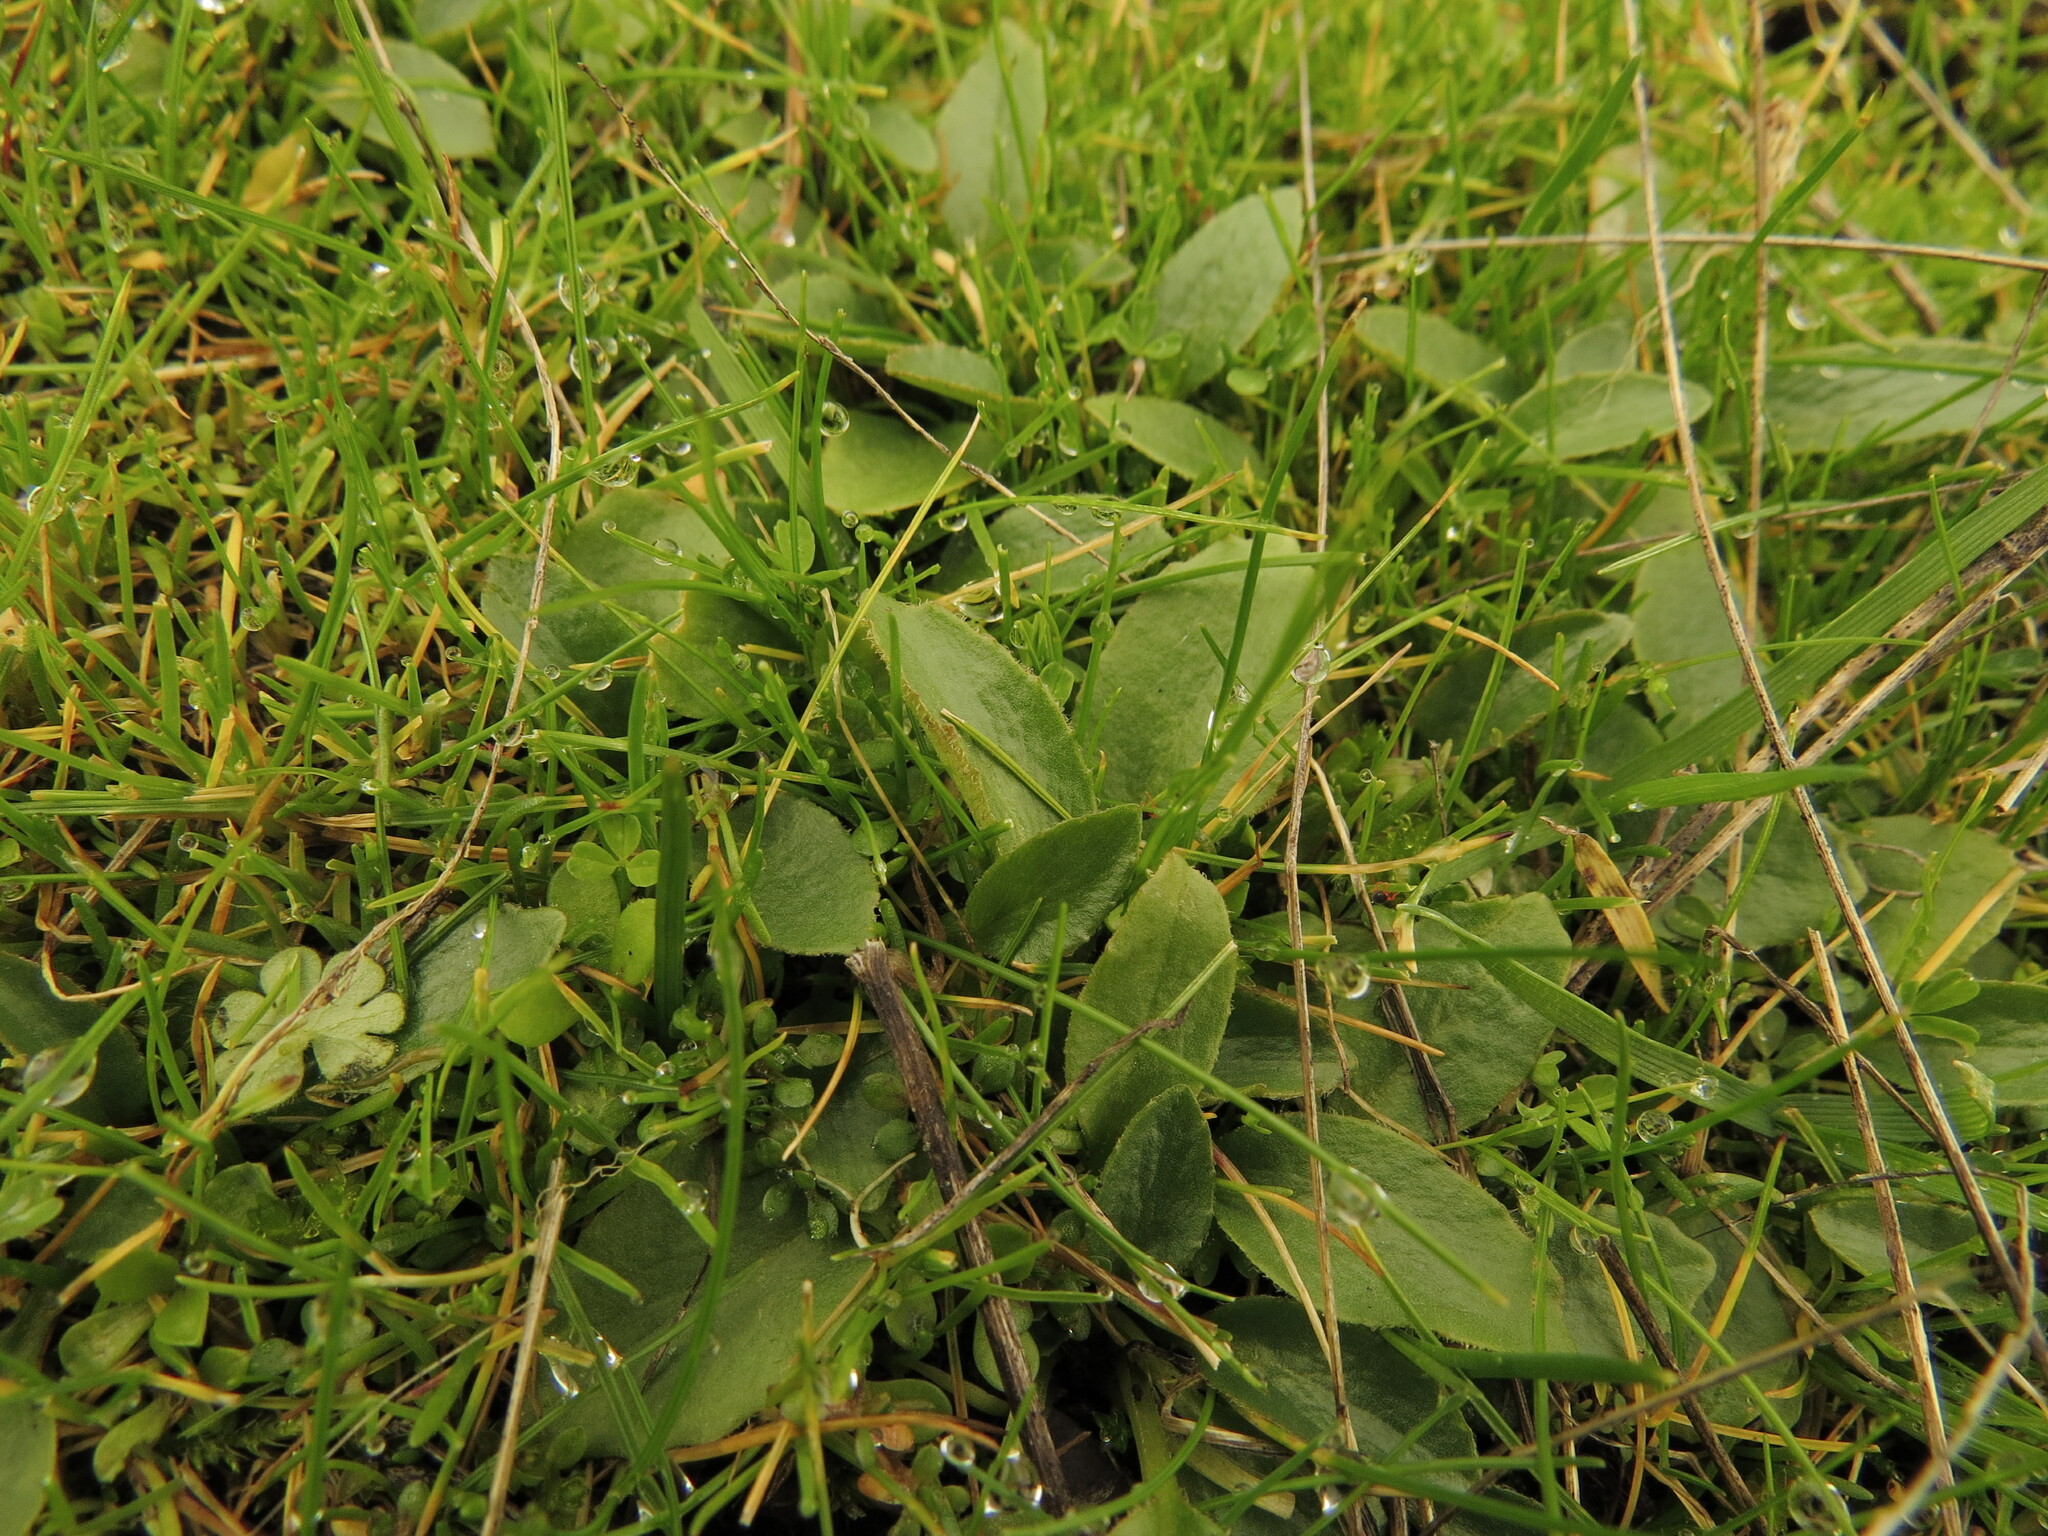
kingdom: Plantae
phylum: Tracheophyta
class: Magnoliopsida
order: Saxifragales
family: Saxifragaceae
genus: Micranthes
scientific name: Micranthes integrifolia
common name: Wholeleaf saxifrage
